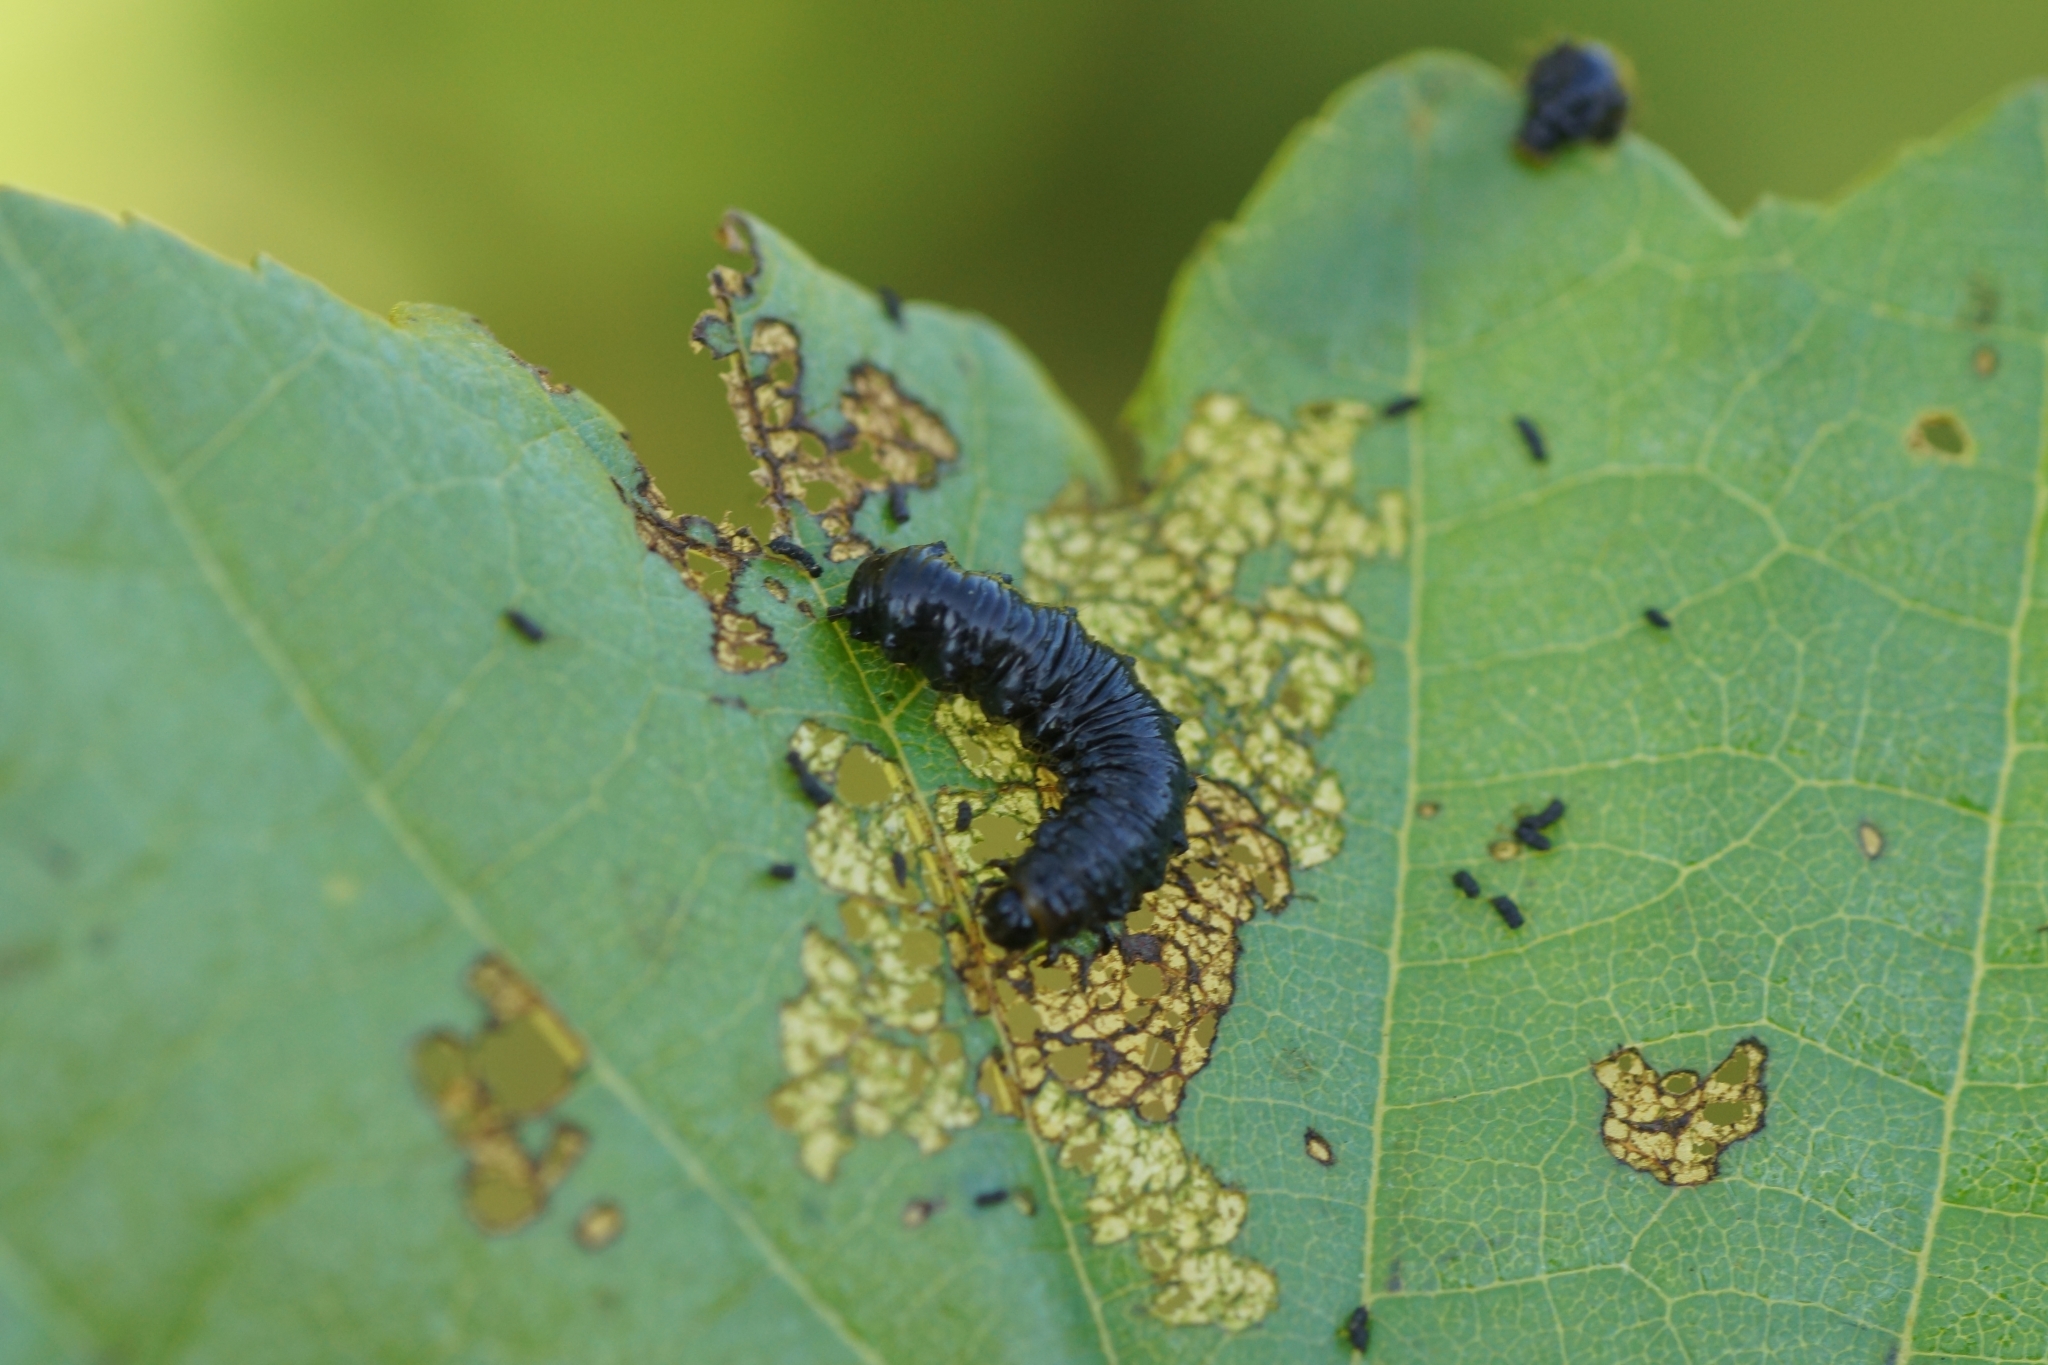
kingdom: Animalia
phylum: Arthropoda
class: Insecta
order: Coleoptera
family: Chrysomelidae
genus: Agelastica
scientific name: Agelastica alni
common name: Alder leaf beetle
